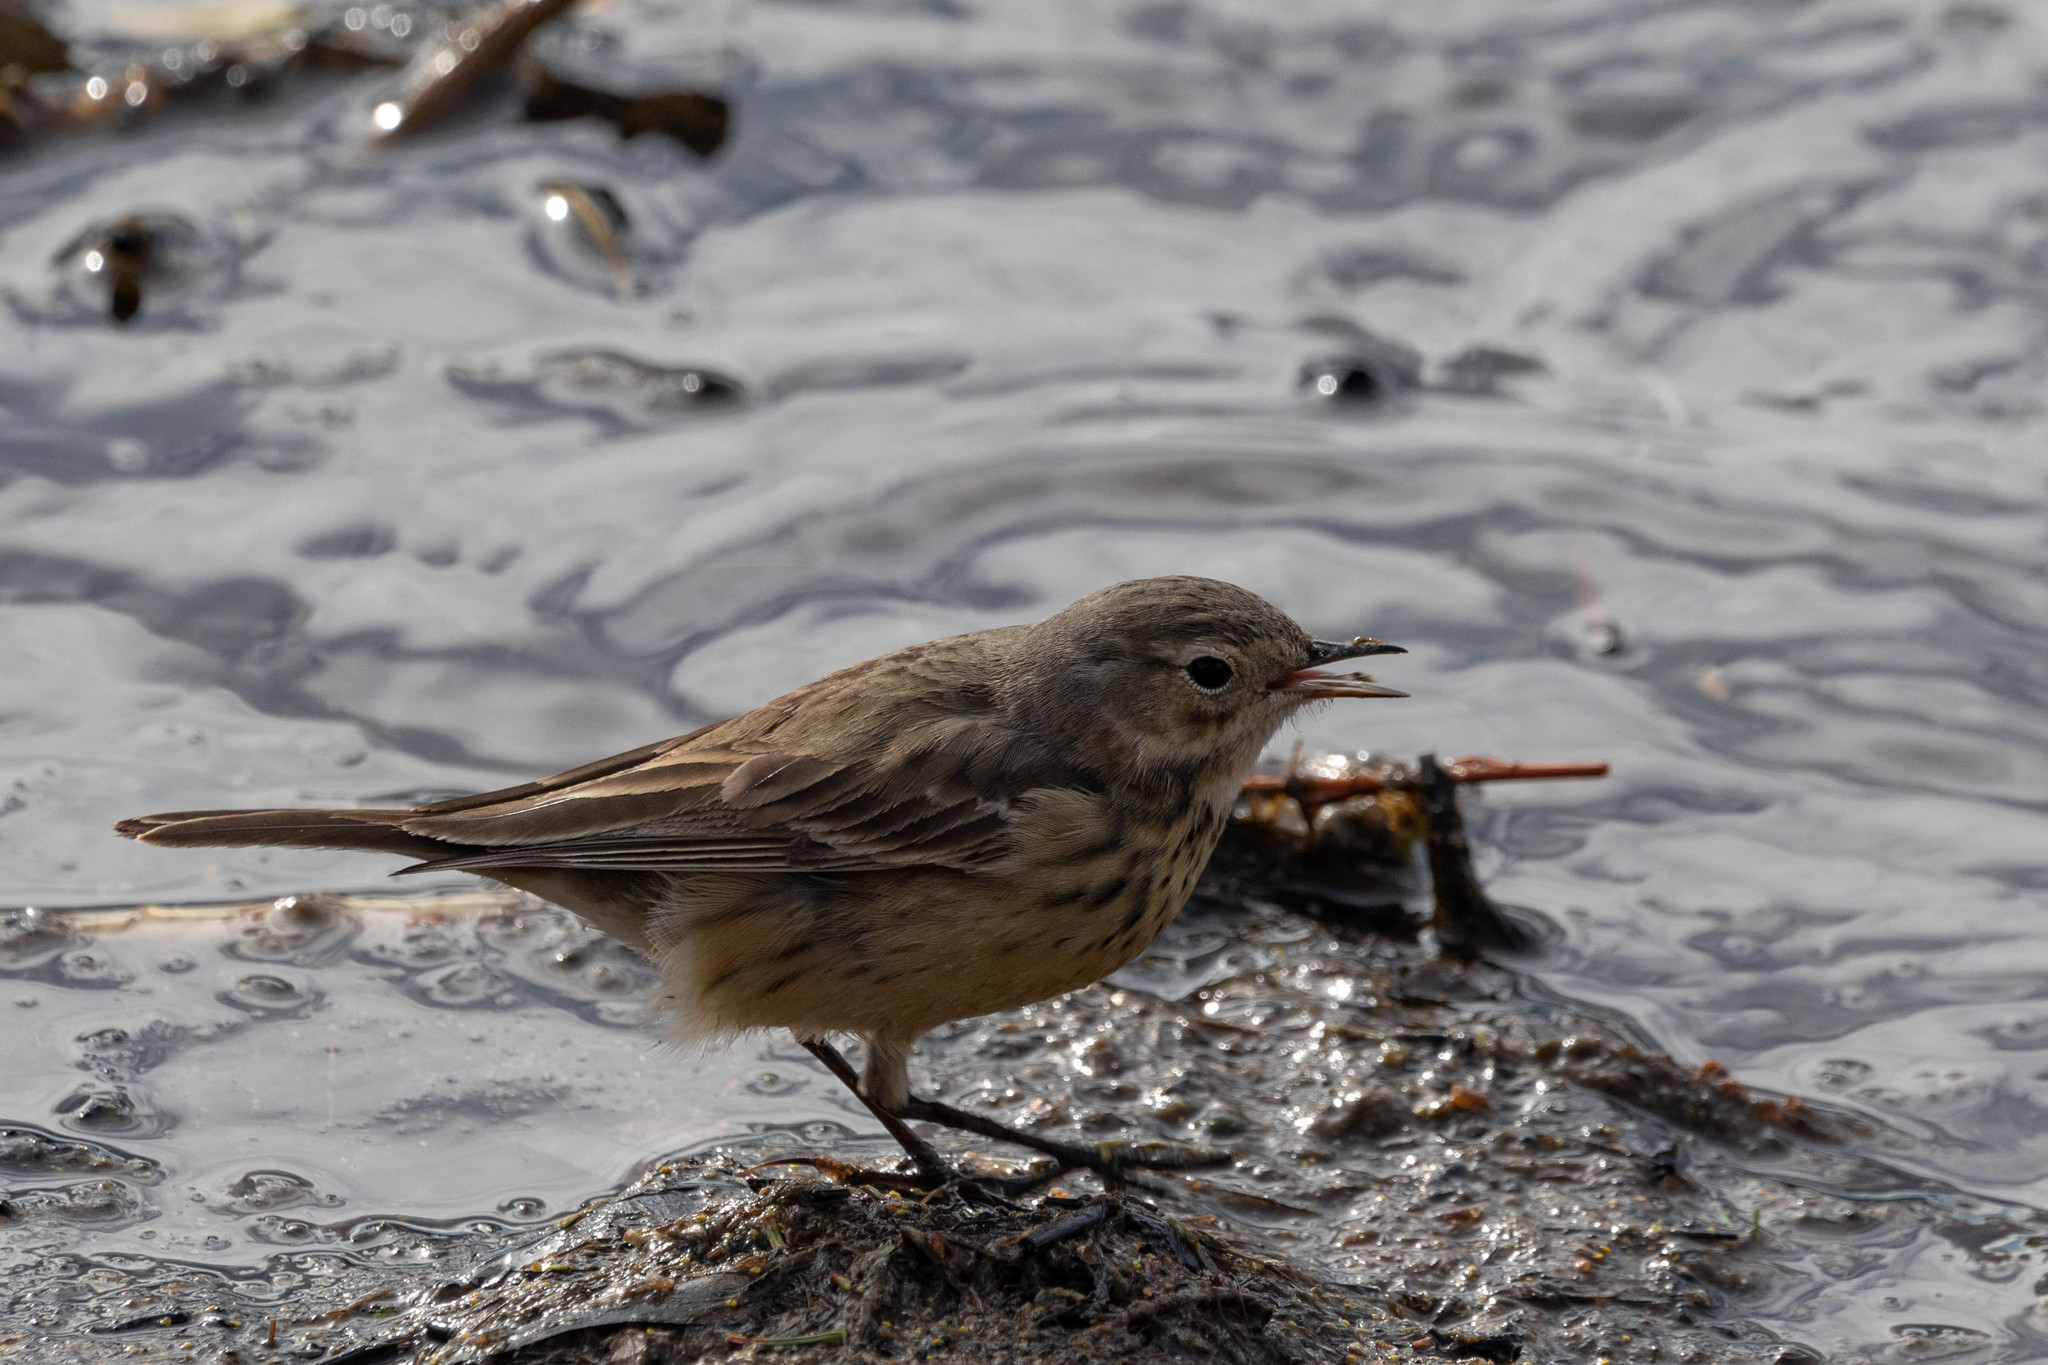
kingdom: Animalia
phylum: Chordata
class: Aves
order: Passeriformes
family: Motacillidae
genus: Anthus
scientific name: Anthus rubescens
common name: Buff-bellied pipit
